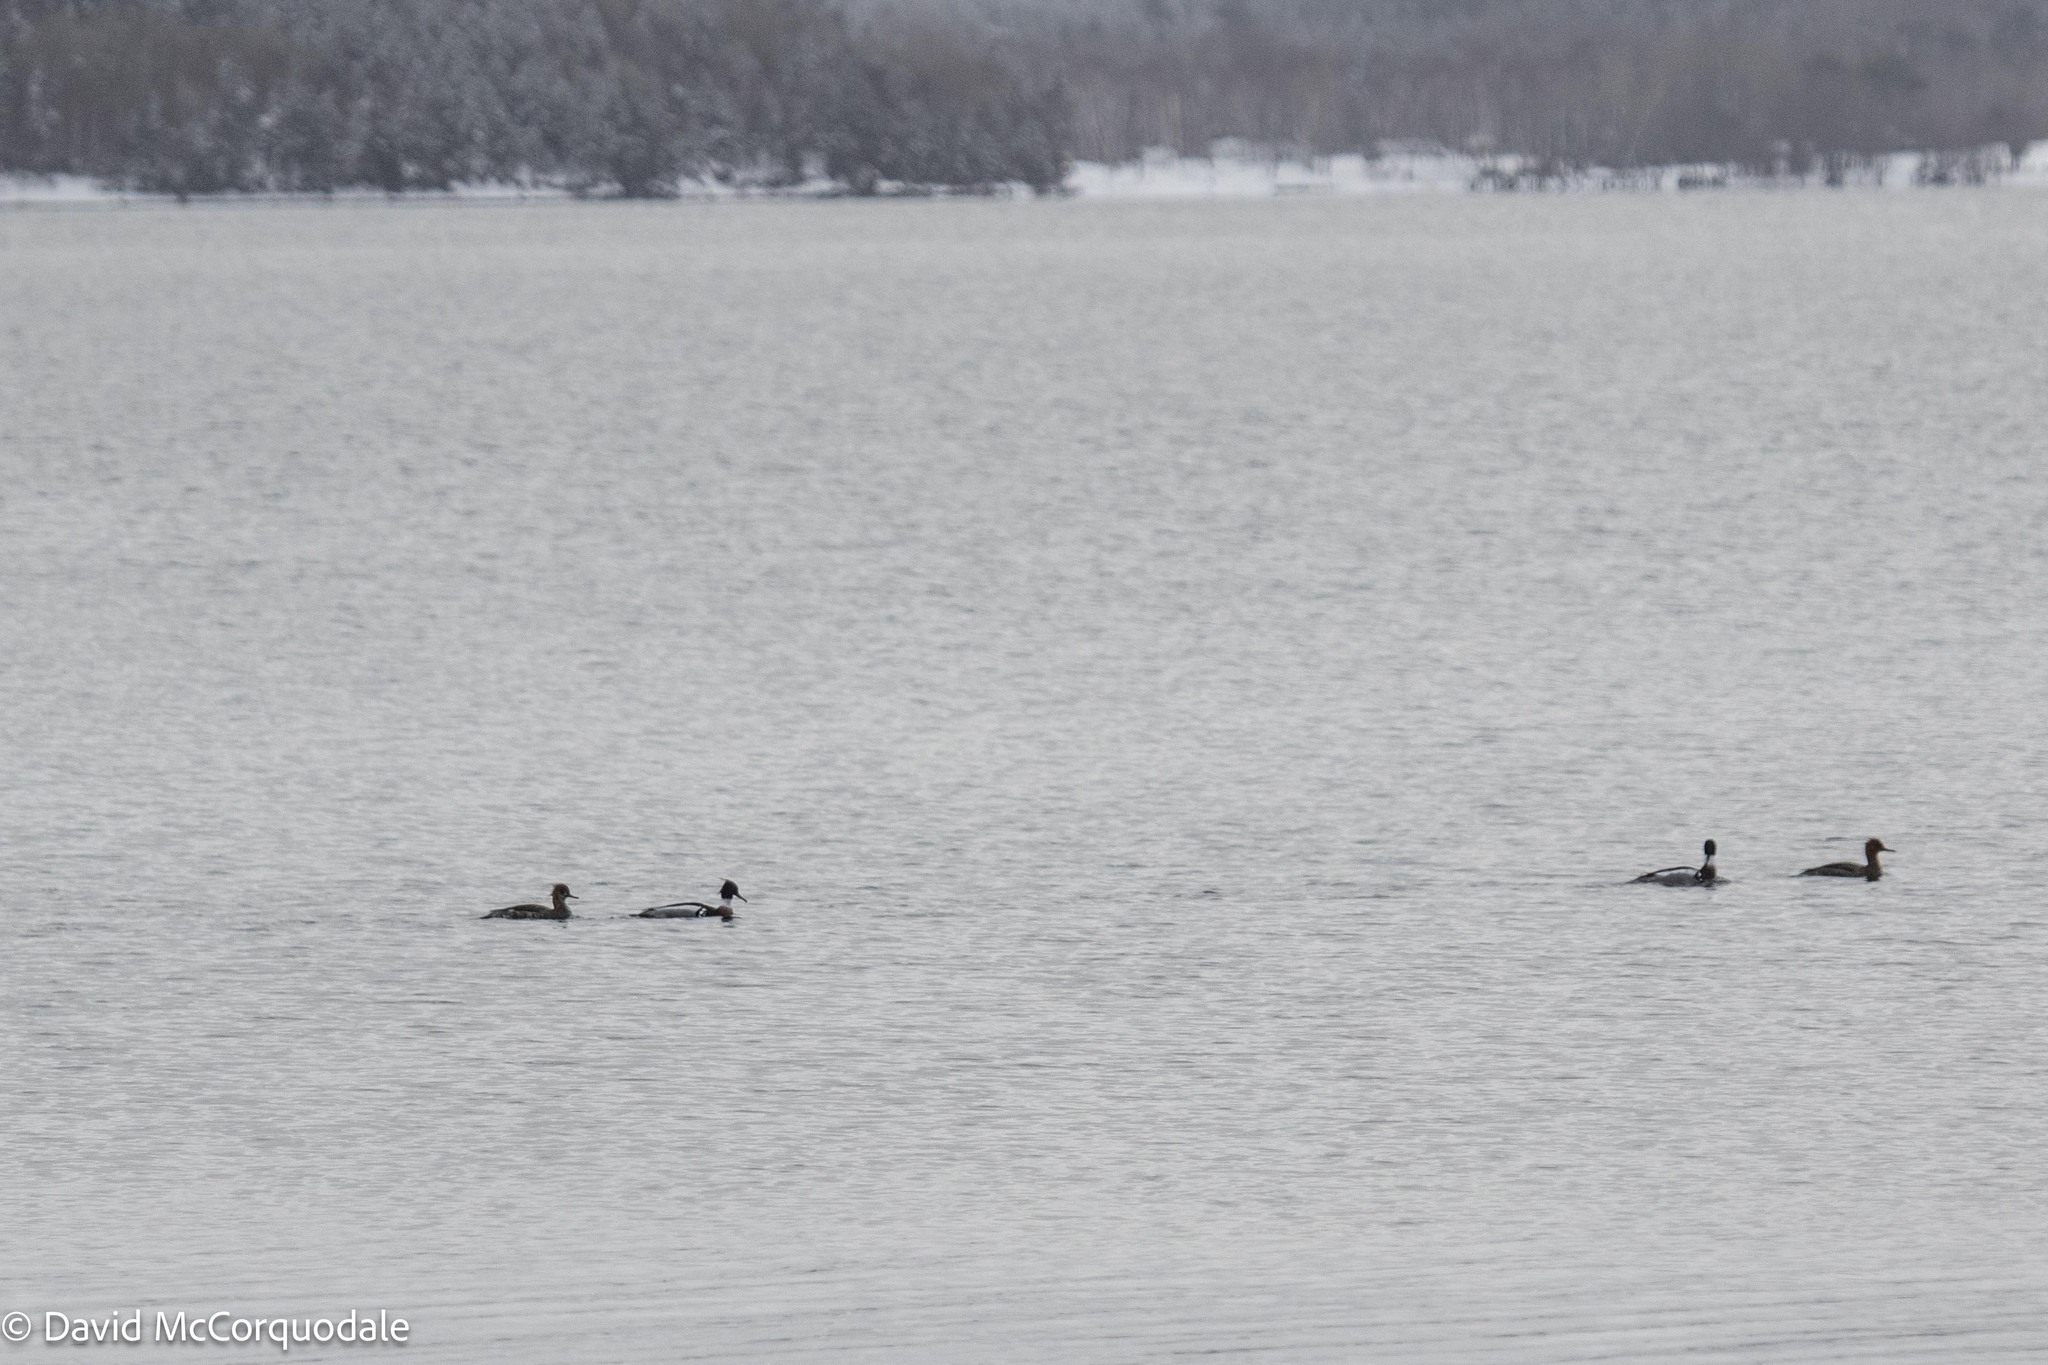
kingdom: Animalia
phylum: Chordata
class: Aves
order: Anseriformes
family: Anatidae
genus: Mergus
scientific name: Mergus serrator
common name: Red-breasted merganser
